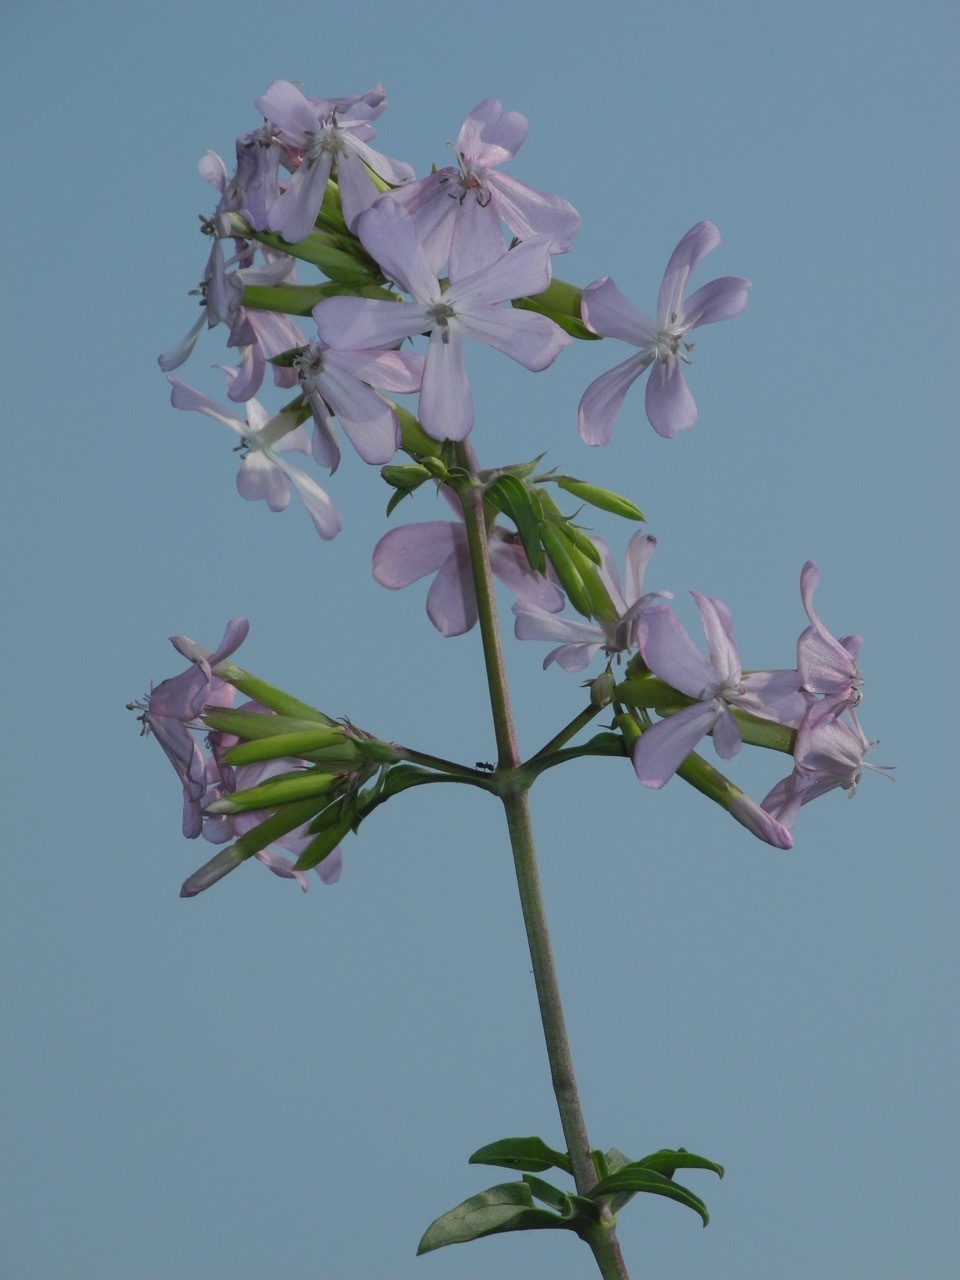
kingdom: Plantae
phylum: Tracheophyta
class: Magnoliopsida
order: Caryophyllales
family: Caryophyllaceae
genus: Saponaria
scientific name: Saponaria officinalis
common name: Soapwort
